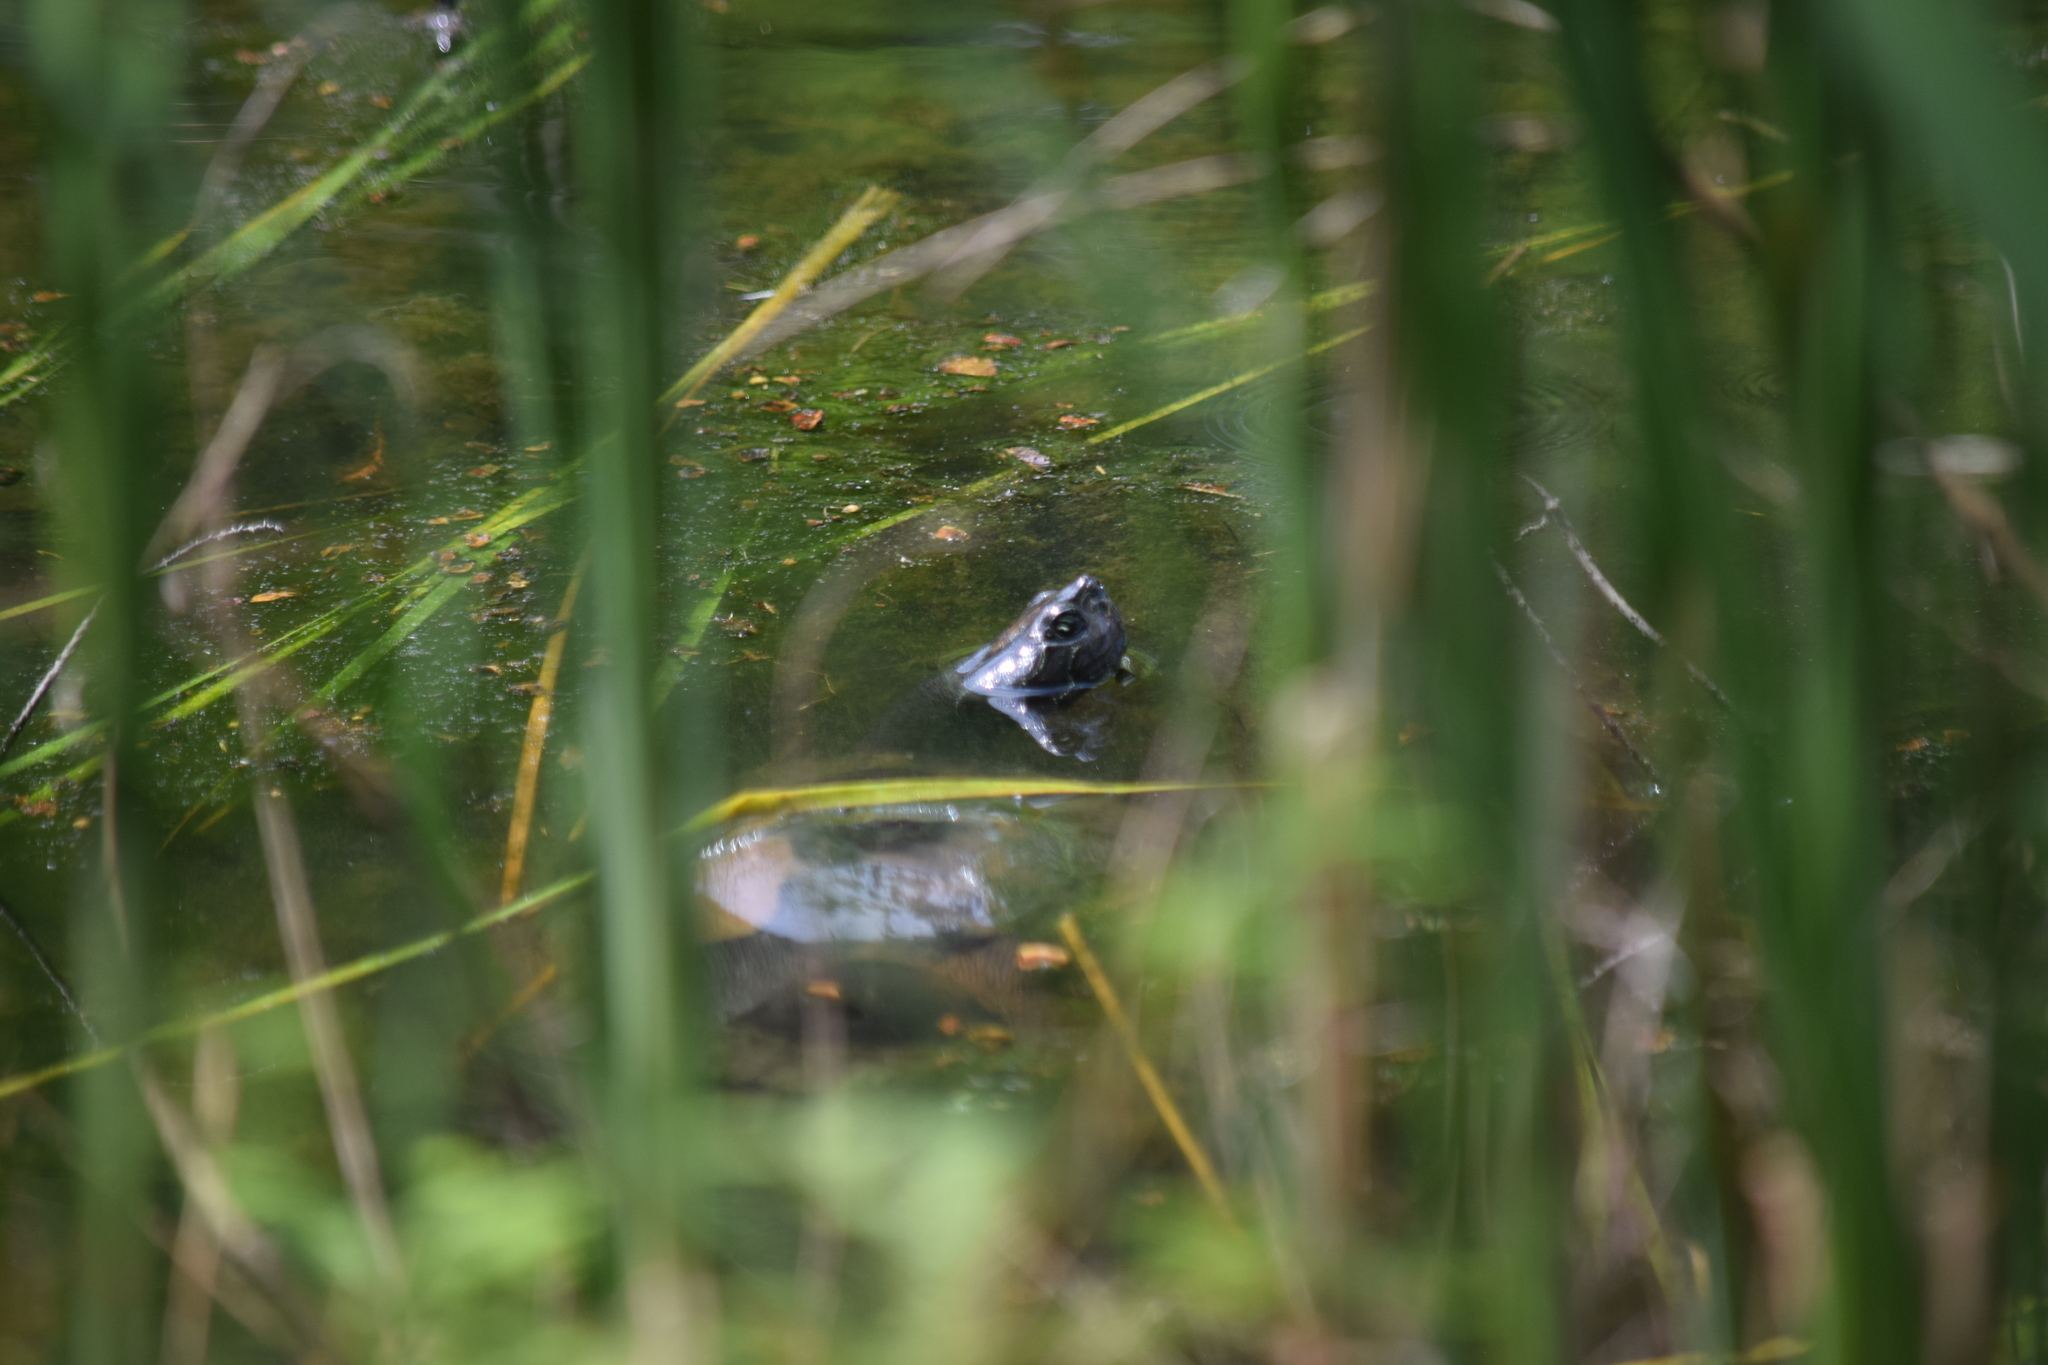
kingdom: Animalia
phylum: Chordata
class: Testudines
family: Emydidae
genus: Pseudemys
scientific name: Pseudemys rubriventris
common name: American red-bellied turtle
